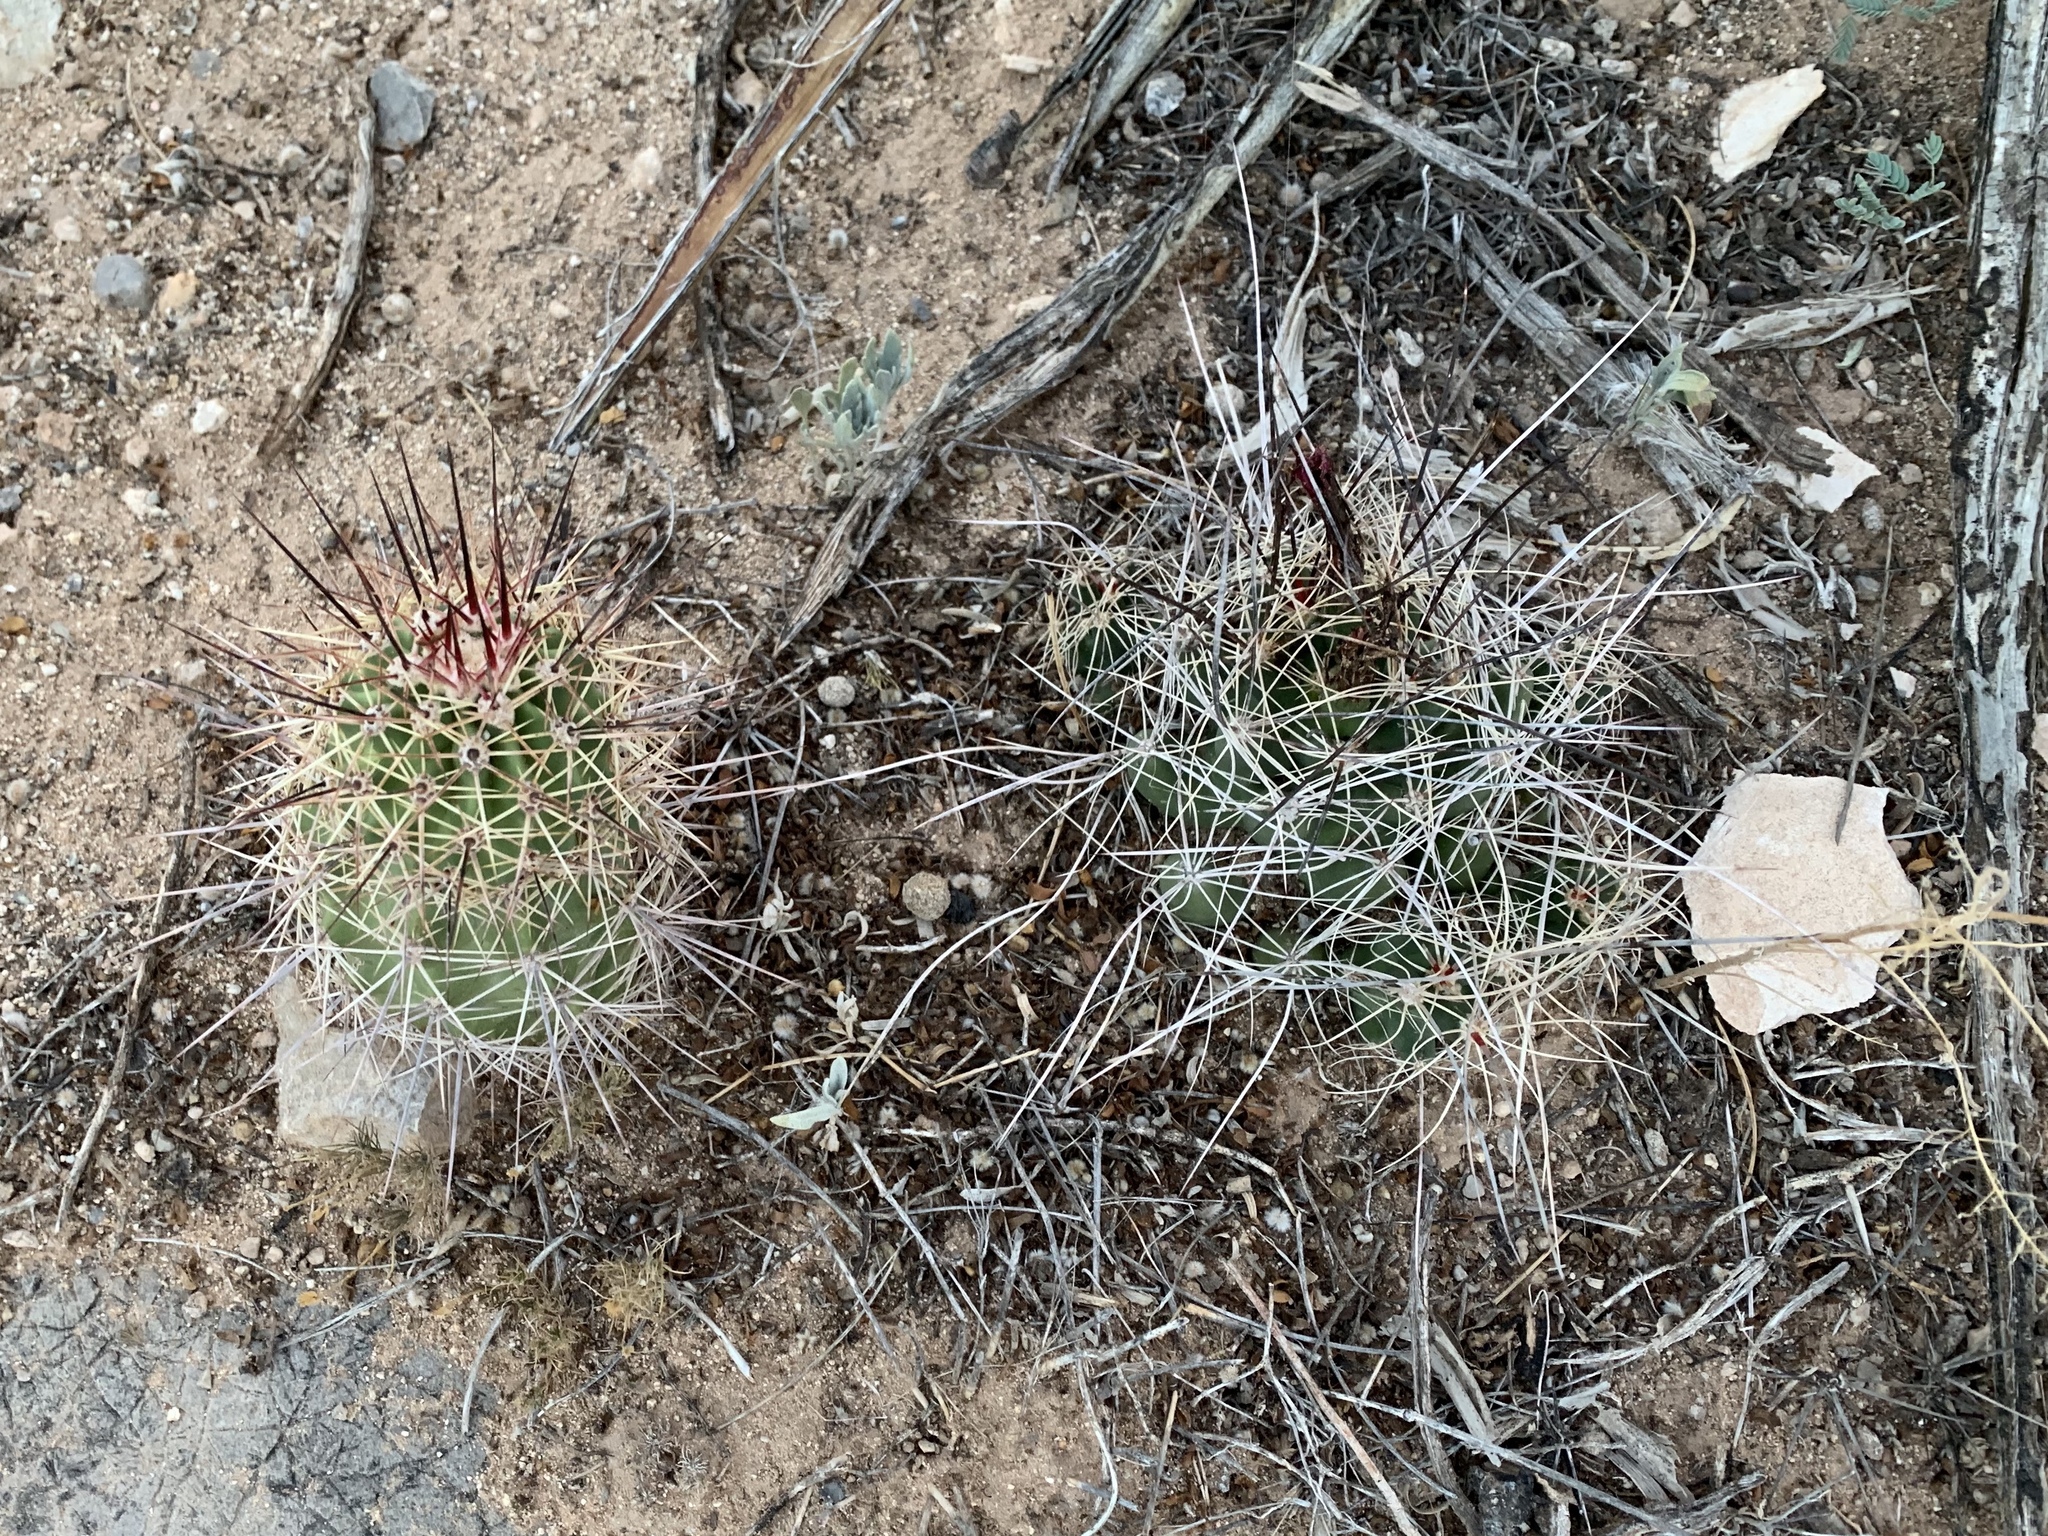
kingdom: Plantae
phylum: Tracheophyta
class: Magnoliopsida
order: Caryophyllales
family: Cactaceae
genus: Echinocereus
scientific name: Echinocereus coccineus
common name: Scarlet hedgehog cactus
